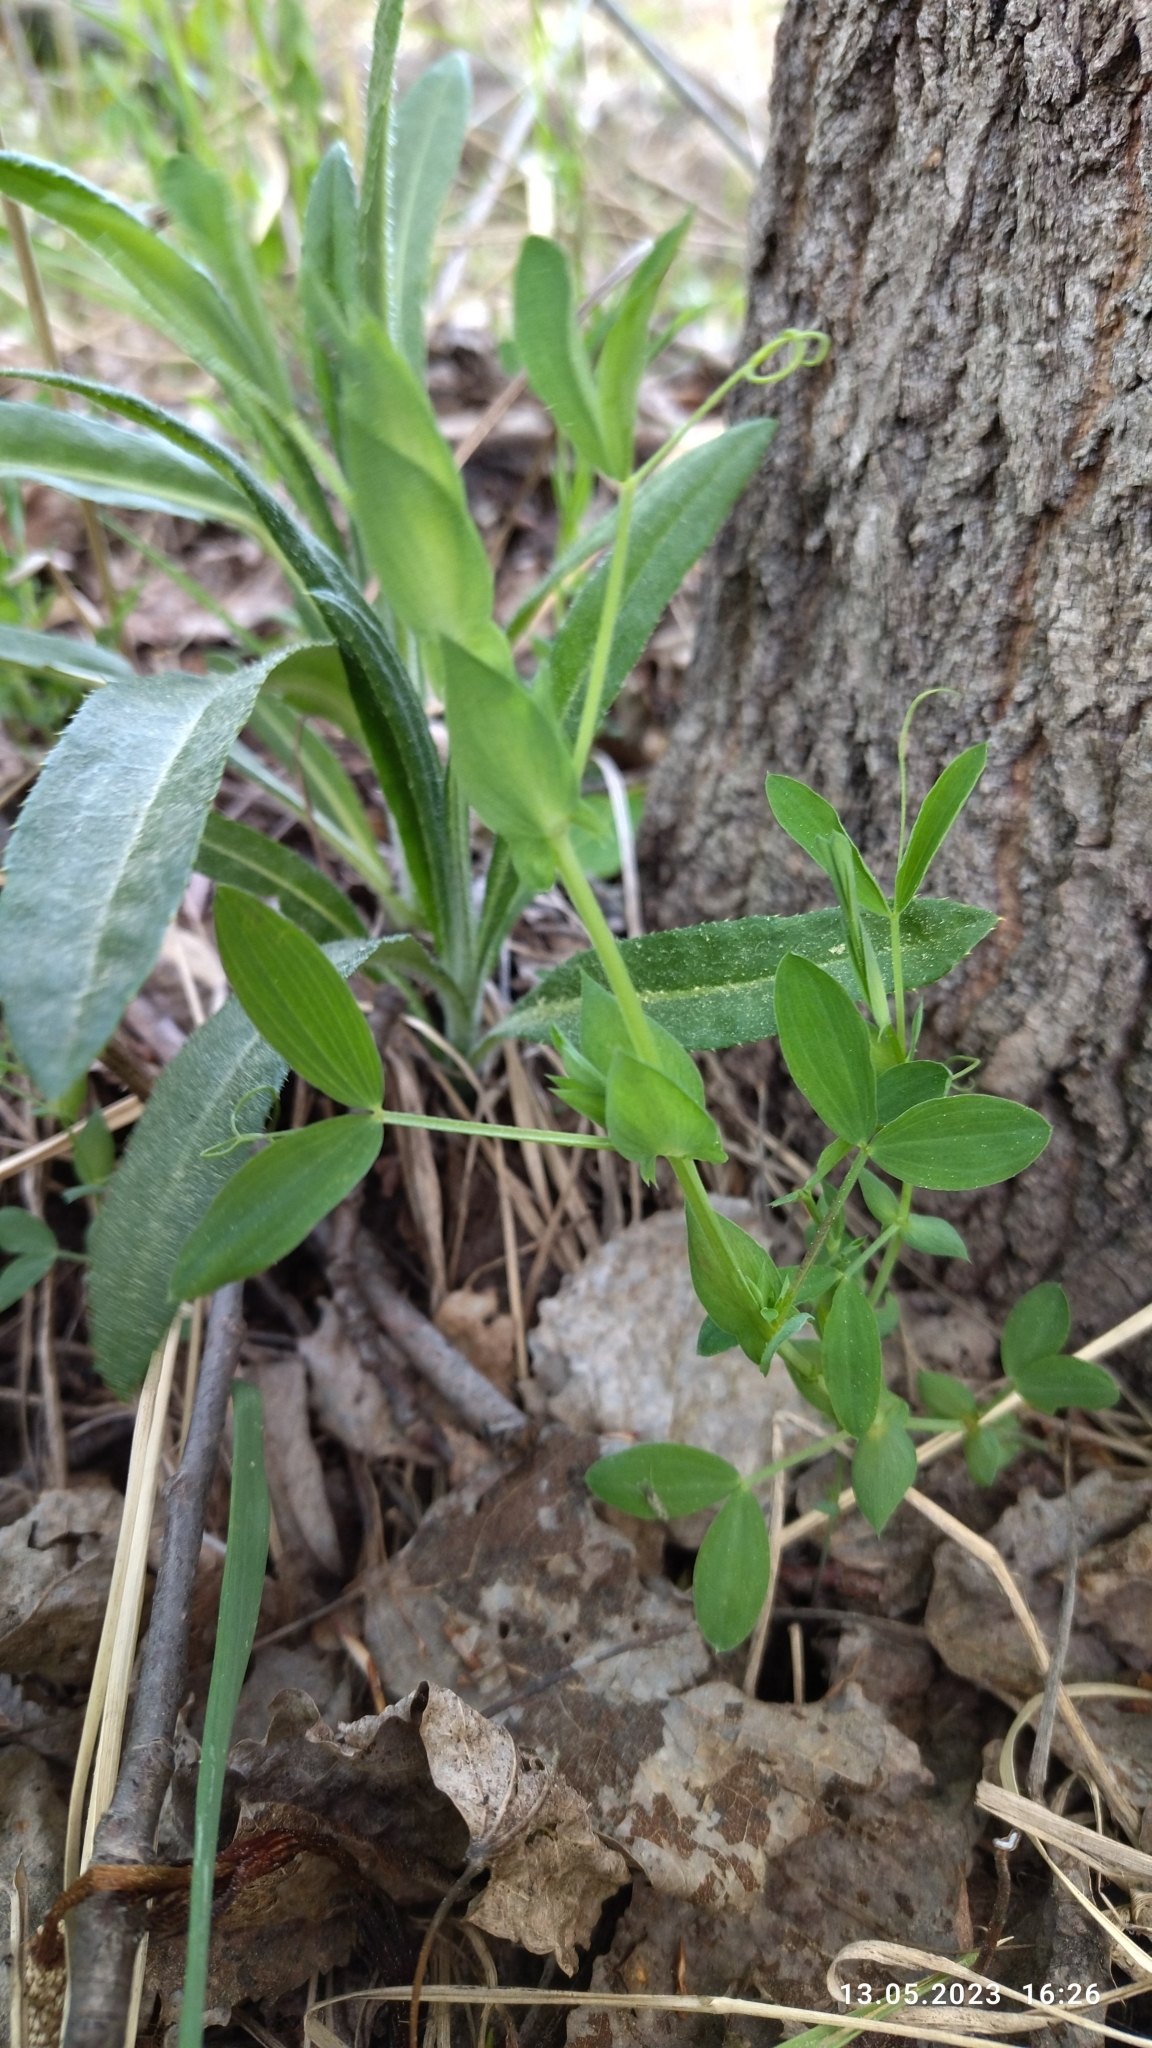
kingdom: Plantae
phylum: Tracheophyta
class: Magnoliopsida
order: Fabales
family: Fabaceae
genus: Lathyrus
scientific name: Lathyrus pratensis
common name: Meadow vetchling
